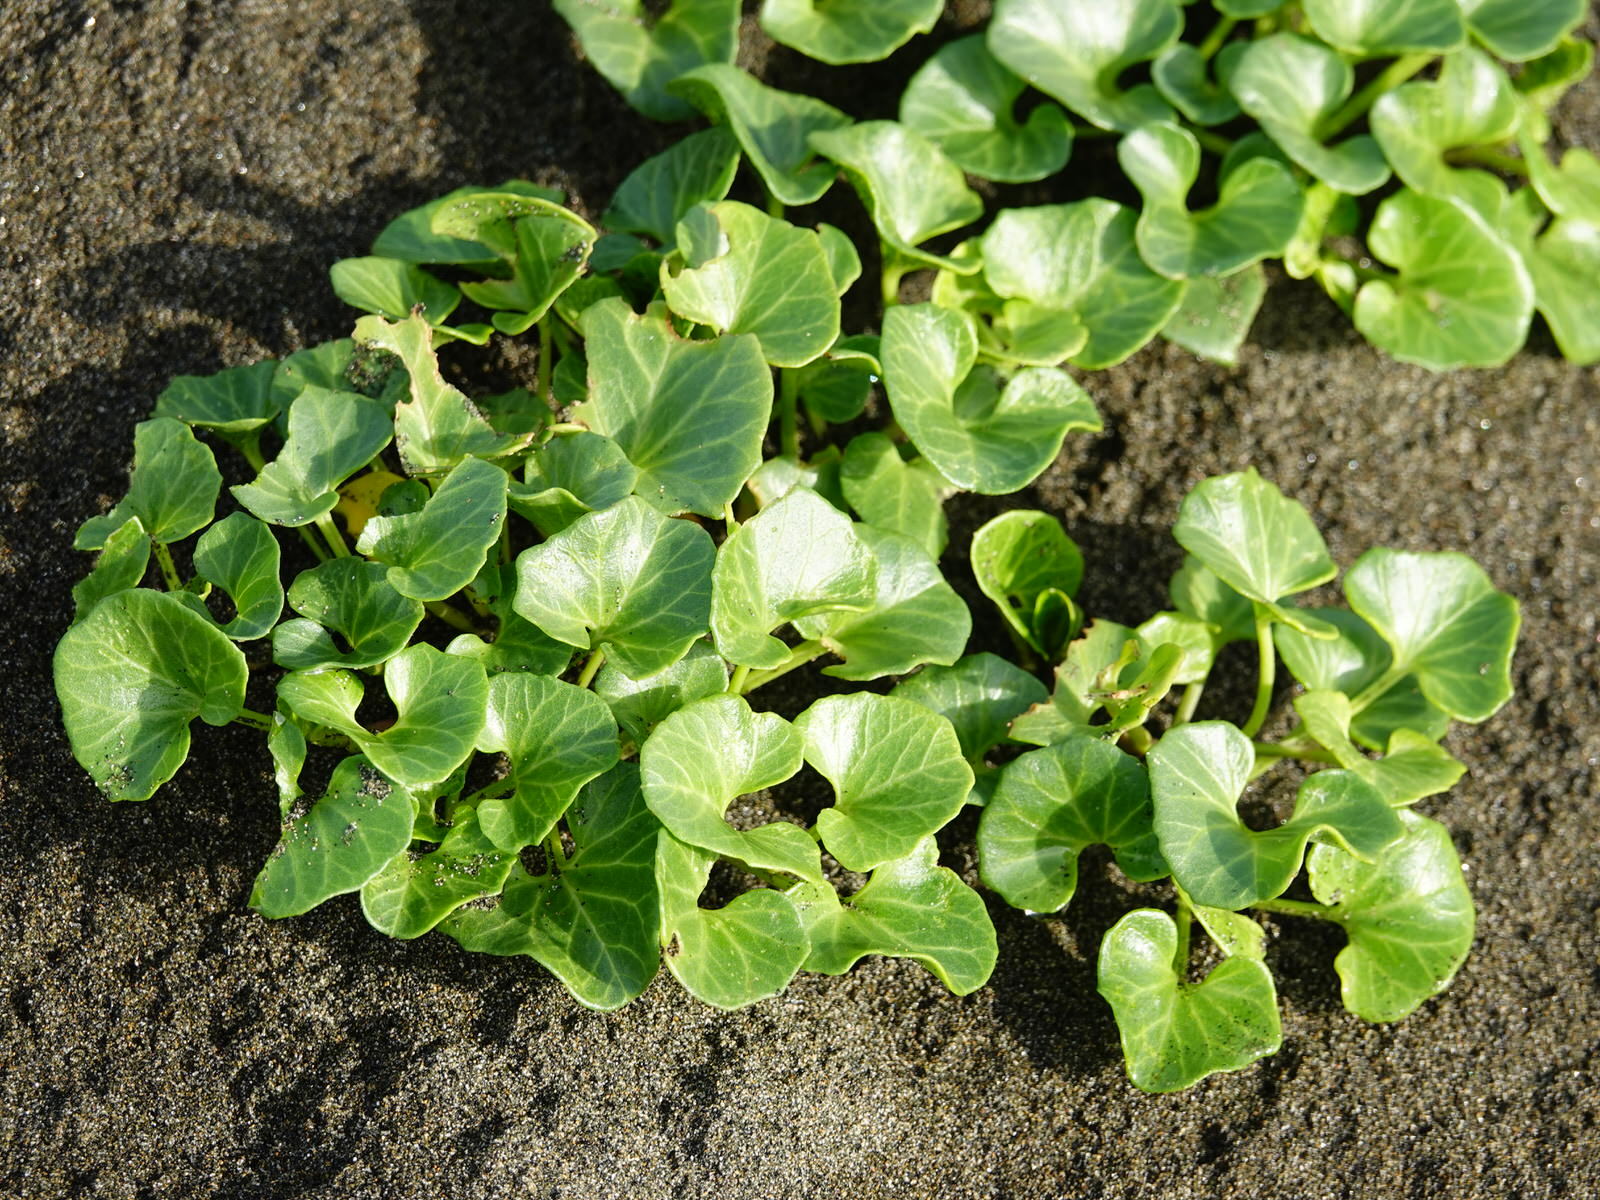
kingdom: Plantae
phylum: Tracheophyta
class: Magnoliopsida
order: Solanales
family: Convolvulaceae
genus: Calystegia
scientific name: Calystegia soldanella
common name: Sea bindweed
